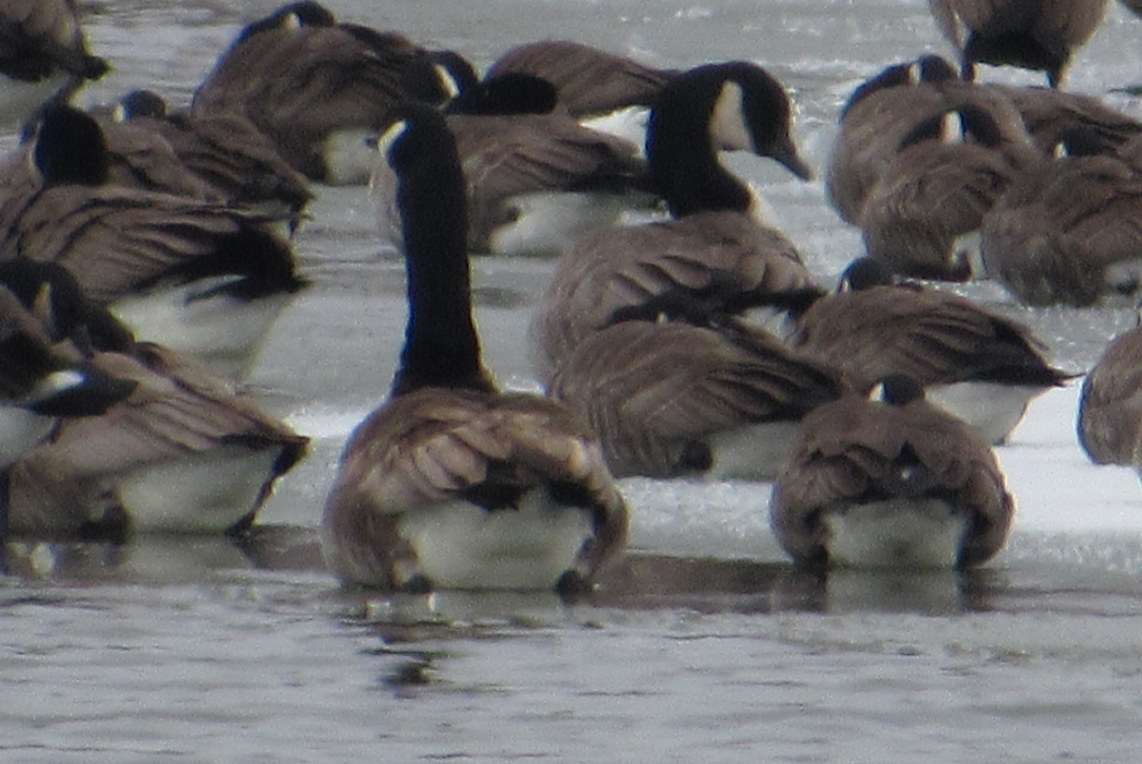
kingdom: Animalia
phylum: Chordata
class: Aves
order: Anseriformes
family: Anatidae
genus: Branta
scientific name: Branta canadensis
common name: Canada goose
